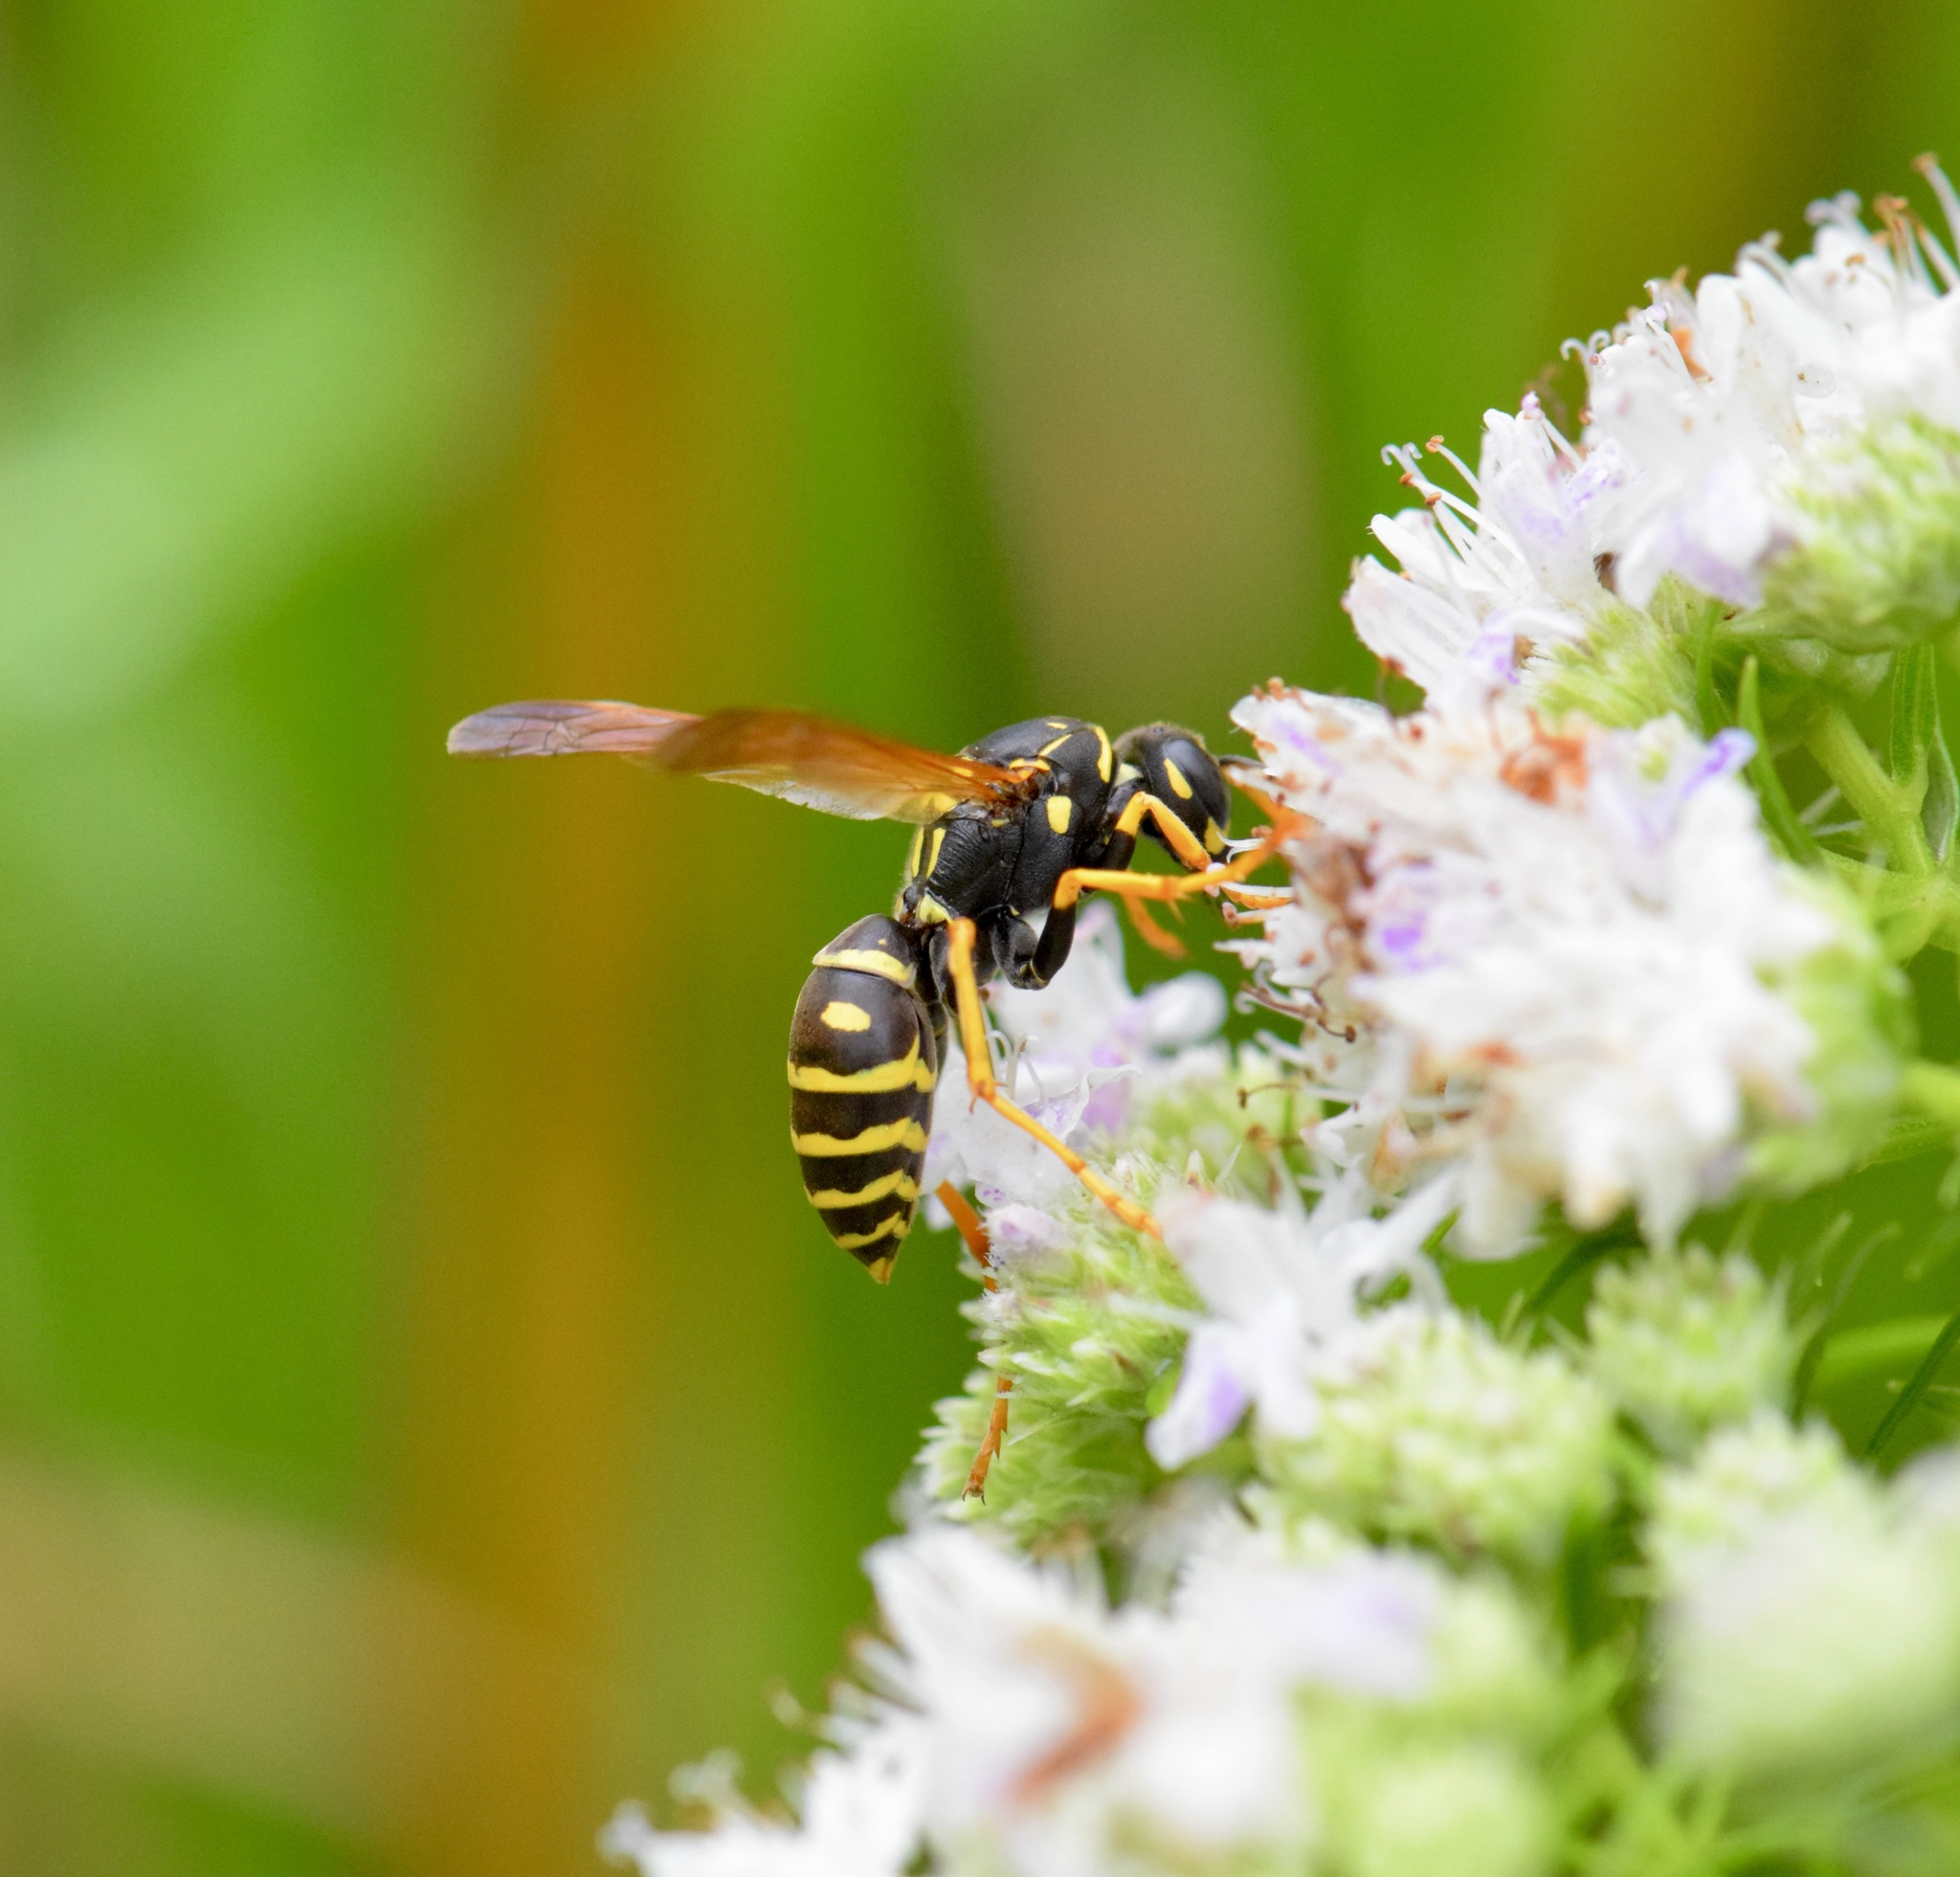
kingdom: Animalia
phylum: Arthropoda
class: Insecta
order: Hymenoptera
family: Eumenidae
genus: Polistes
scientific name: Polistes dominula
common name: Paper wasp
